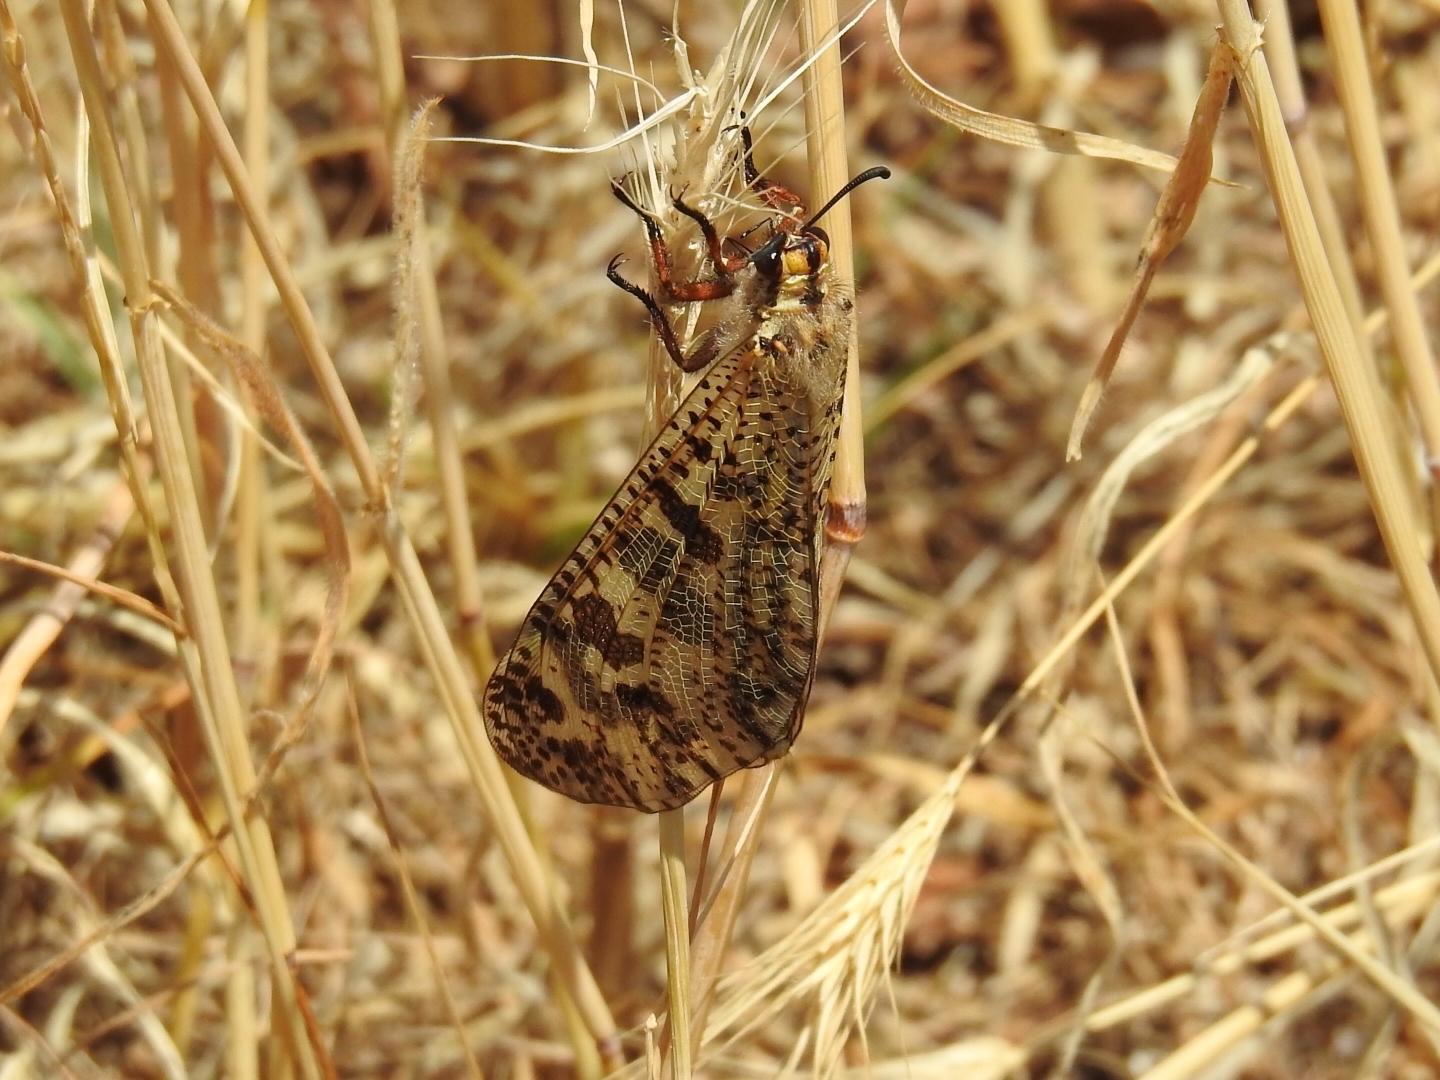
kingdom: Animalia
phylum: Arthropoda
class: Insecta
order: Neuroptera
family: Myrmeleontidae
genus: Palpares
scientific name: Palpares libelluloides
